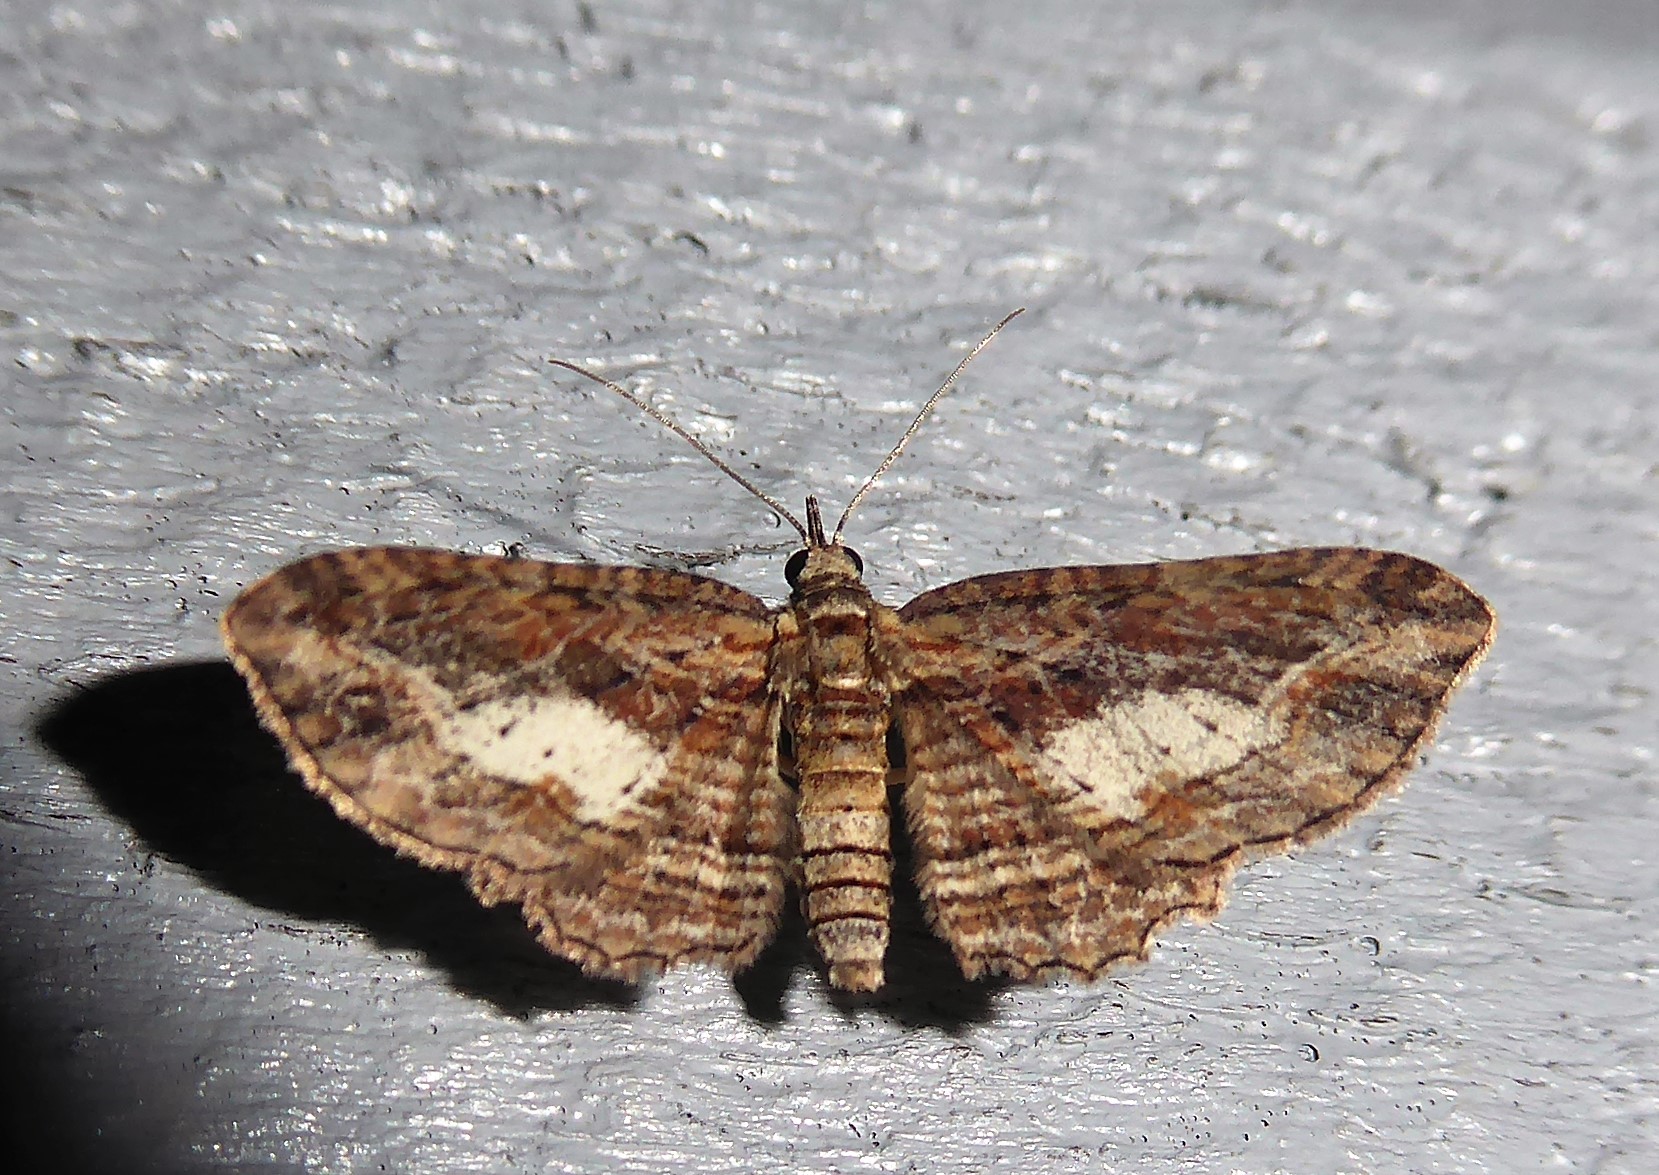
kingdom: Animalia
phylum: Arthropoda
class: Insecta
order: Lepidoptera
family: Geometridae
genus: Chloroclystis
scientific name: Chloroclystis filata
